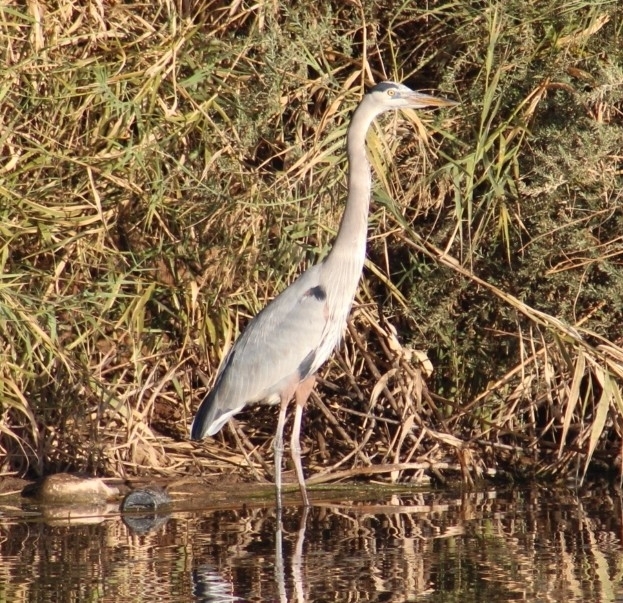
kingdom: Animalia
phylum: Chordata
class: Aves
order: Pelecaniformes
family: Ardeidae
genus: Ardea
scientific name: Ardea herodias
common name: Great blue heron
